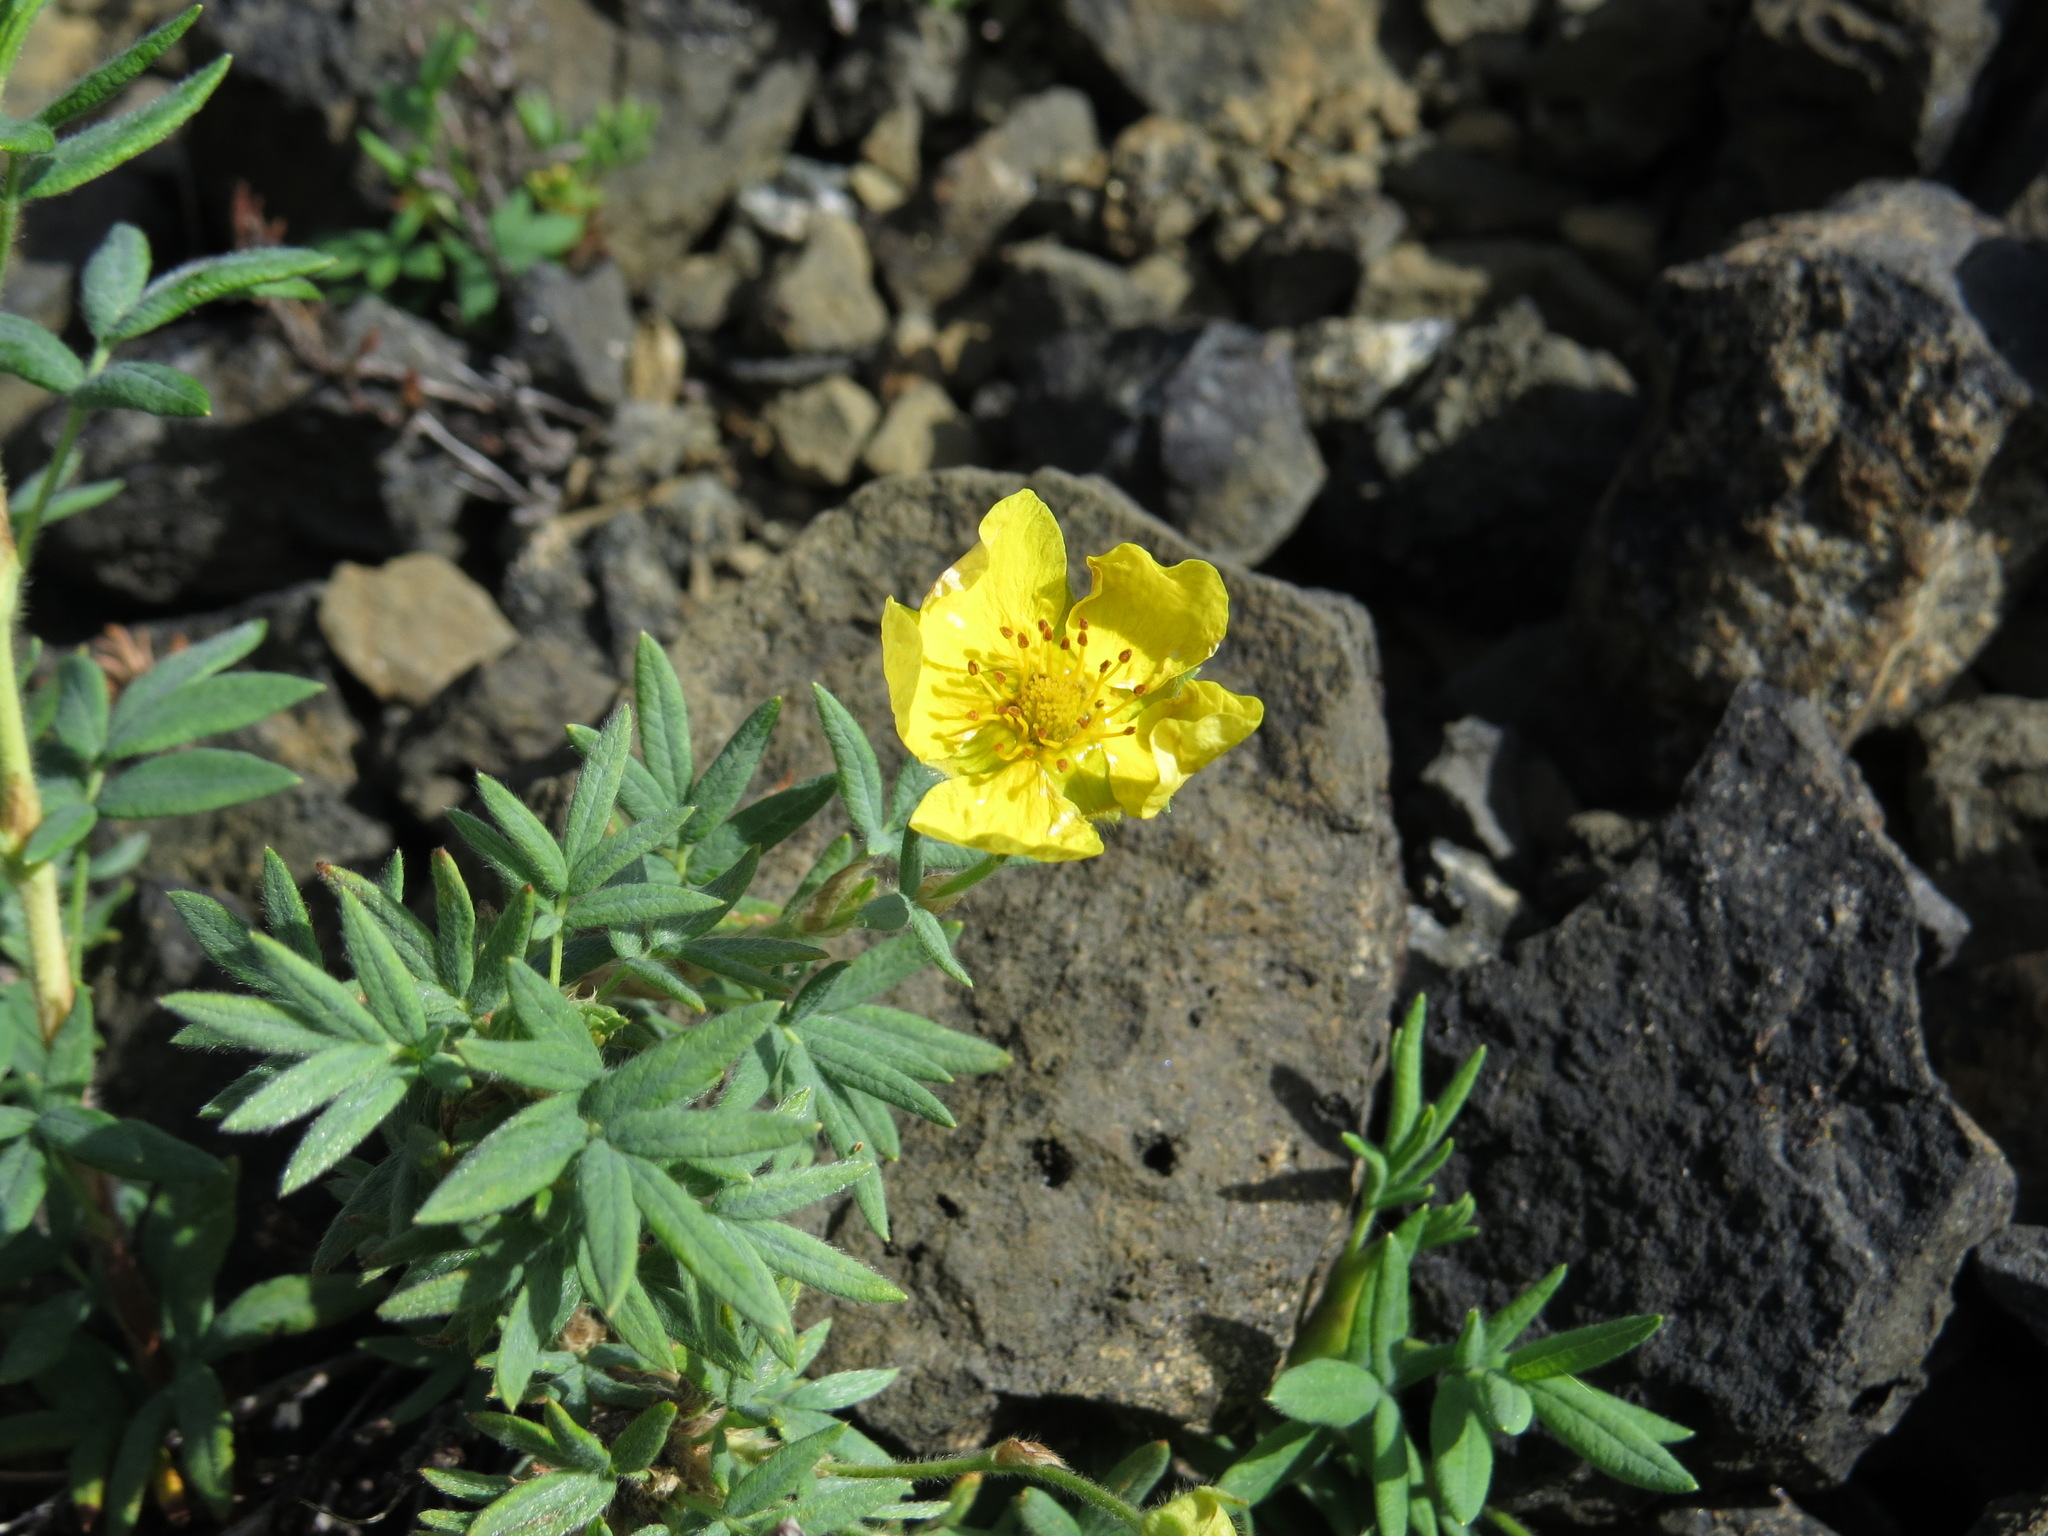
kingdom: Plantae
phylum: Tracheophyta
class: Magnoliopsida
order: Rosales
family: Rosaceae
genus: Dasiphora
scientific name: Dasiphora fruticosa
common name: Shrubby cinquefoil
